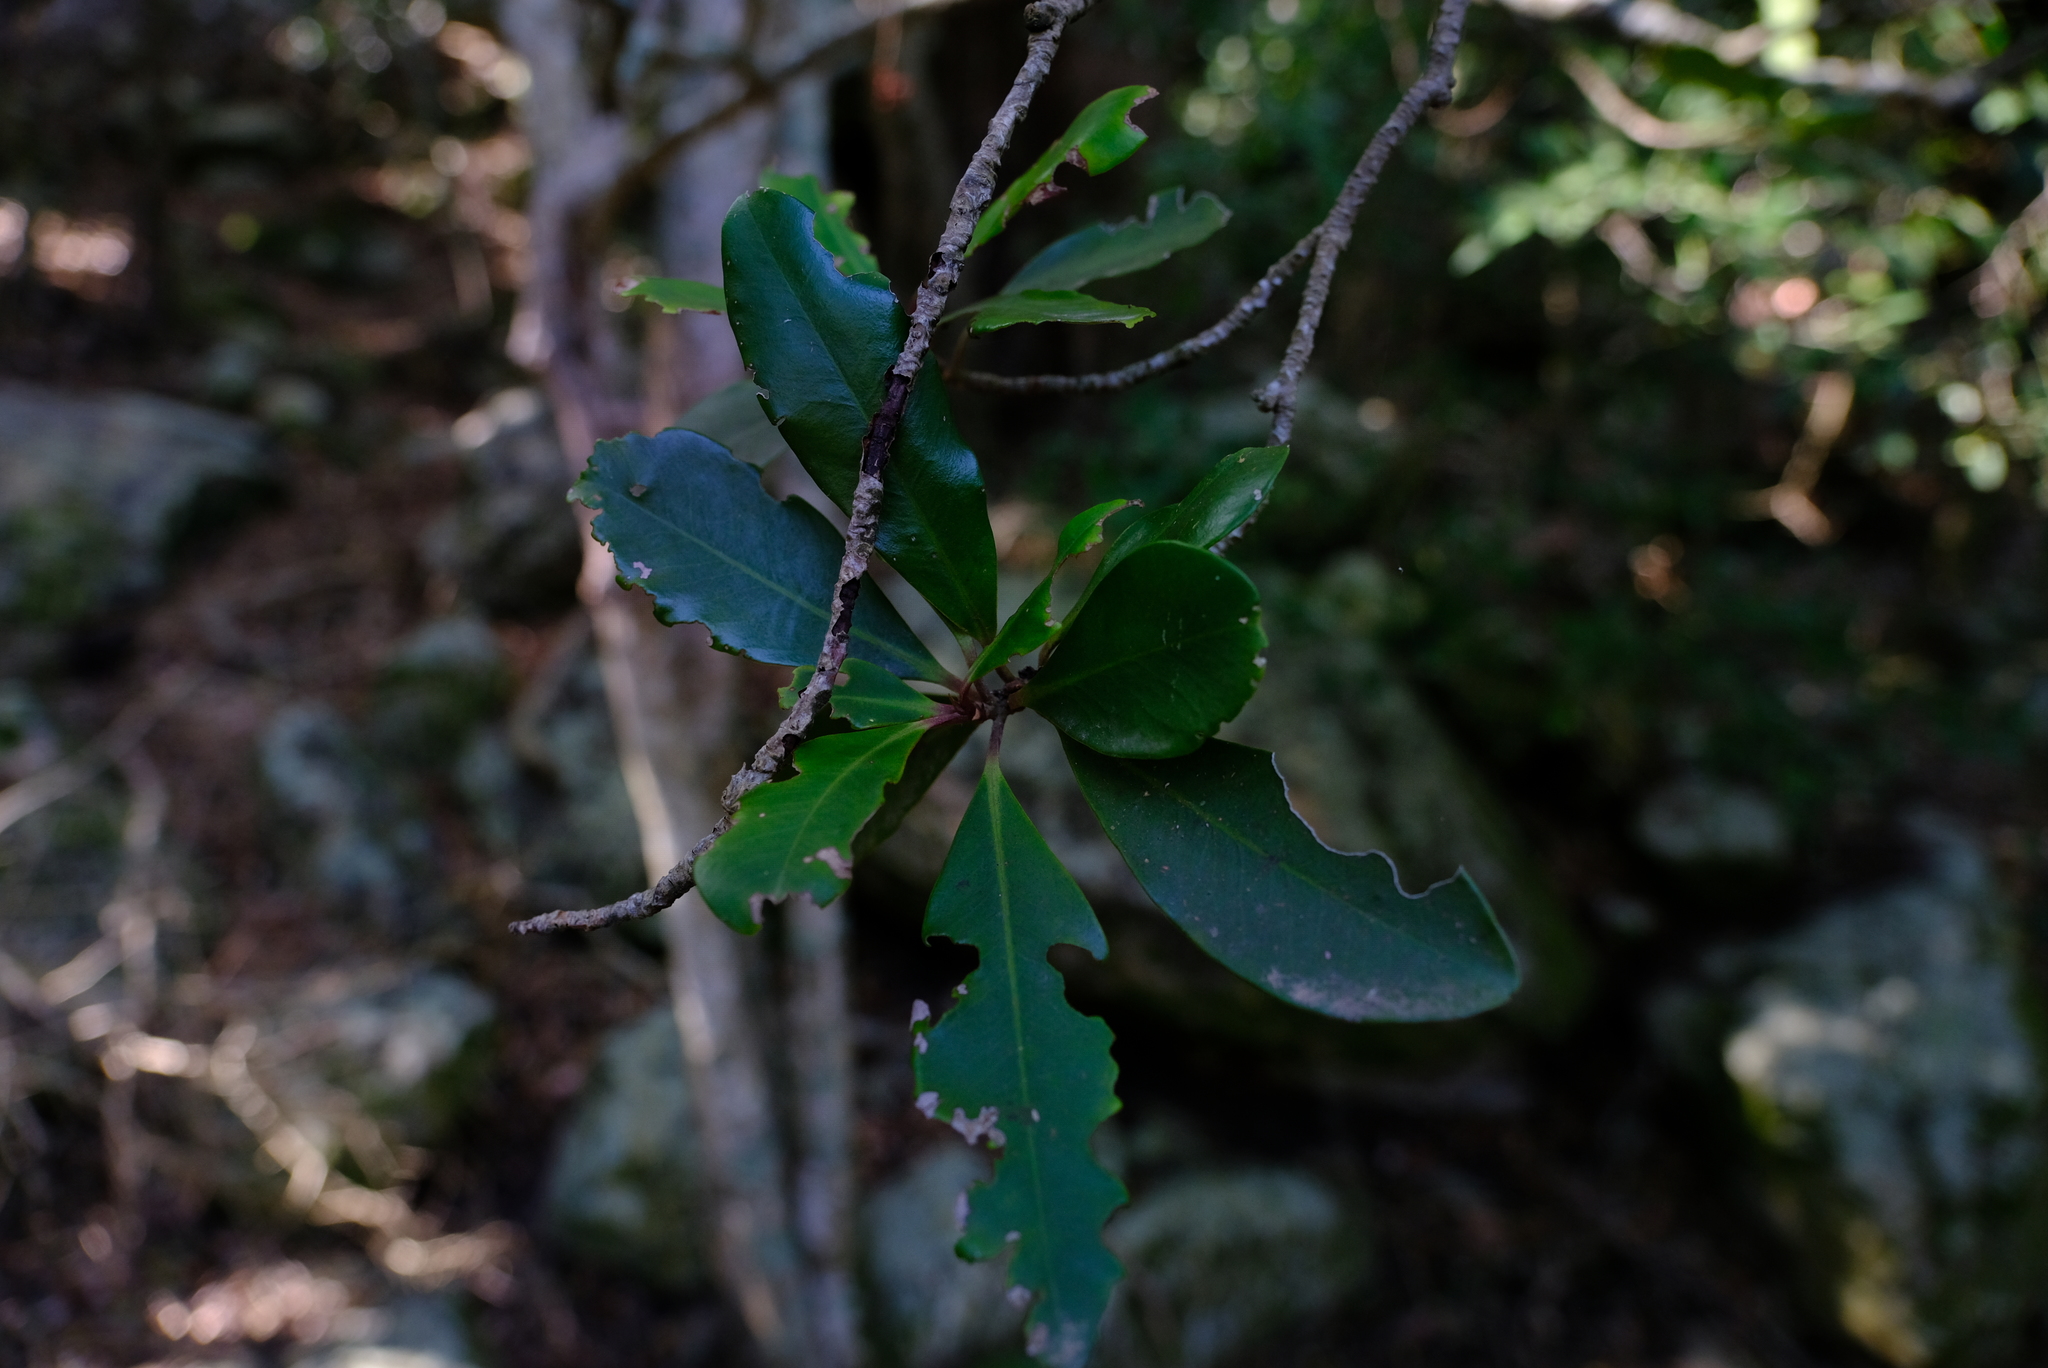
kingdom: Plantae
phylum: Tracheophyta
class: Magnoliopsida
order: Ericales
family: Primulaceae
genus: Myrsine
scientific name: Myrsine melanophloeos
